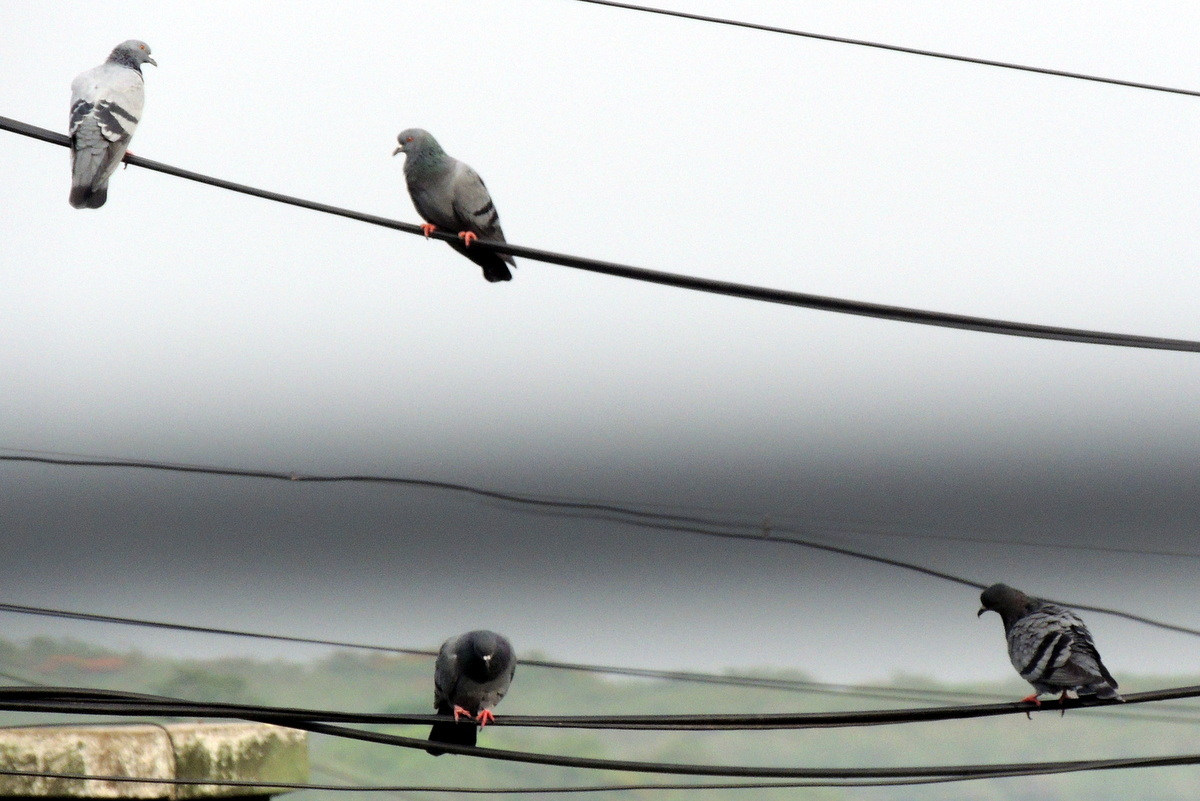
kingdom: Animalia
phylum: Chordata
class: Aves
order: Columbiformes
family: Columbidae
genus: Columba
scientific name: Columba livia
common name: Rock pigeon
